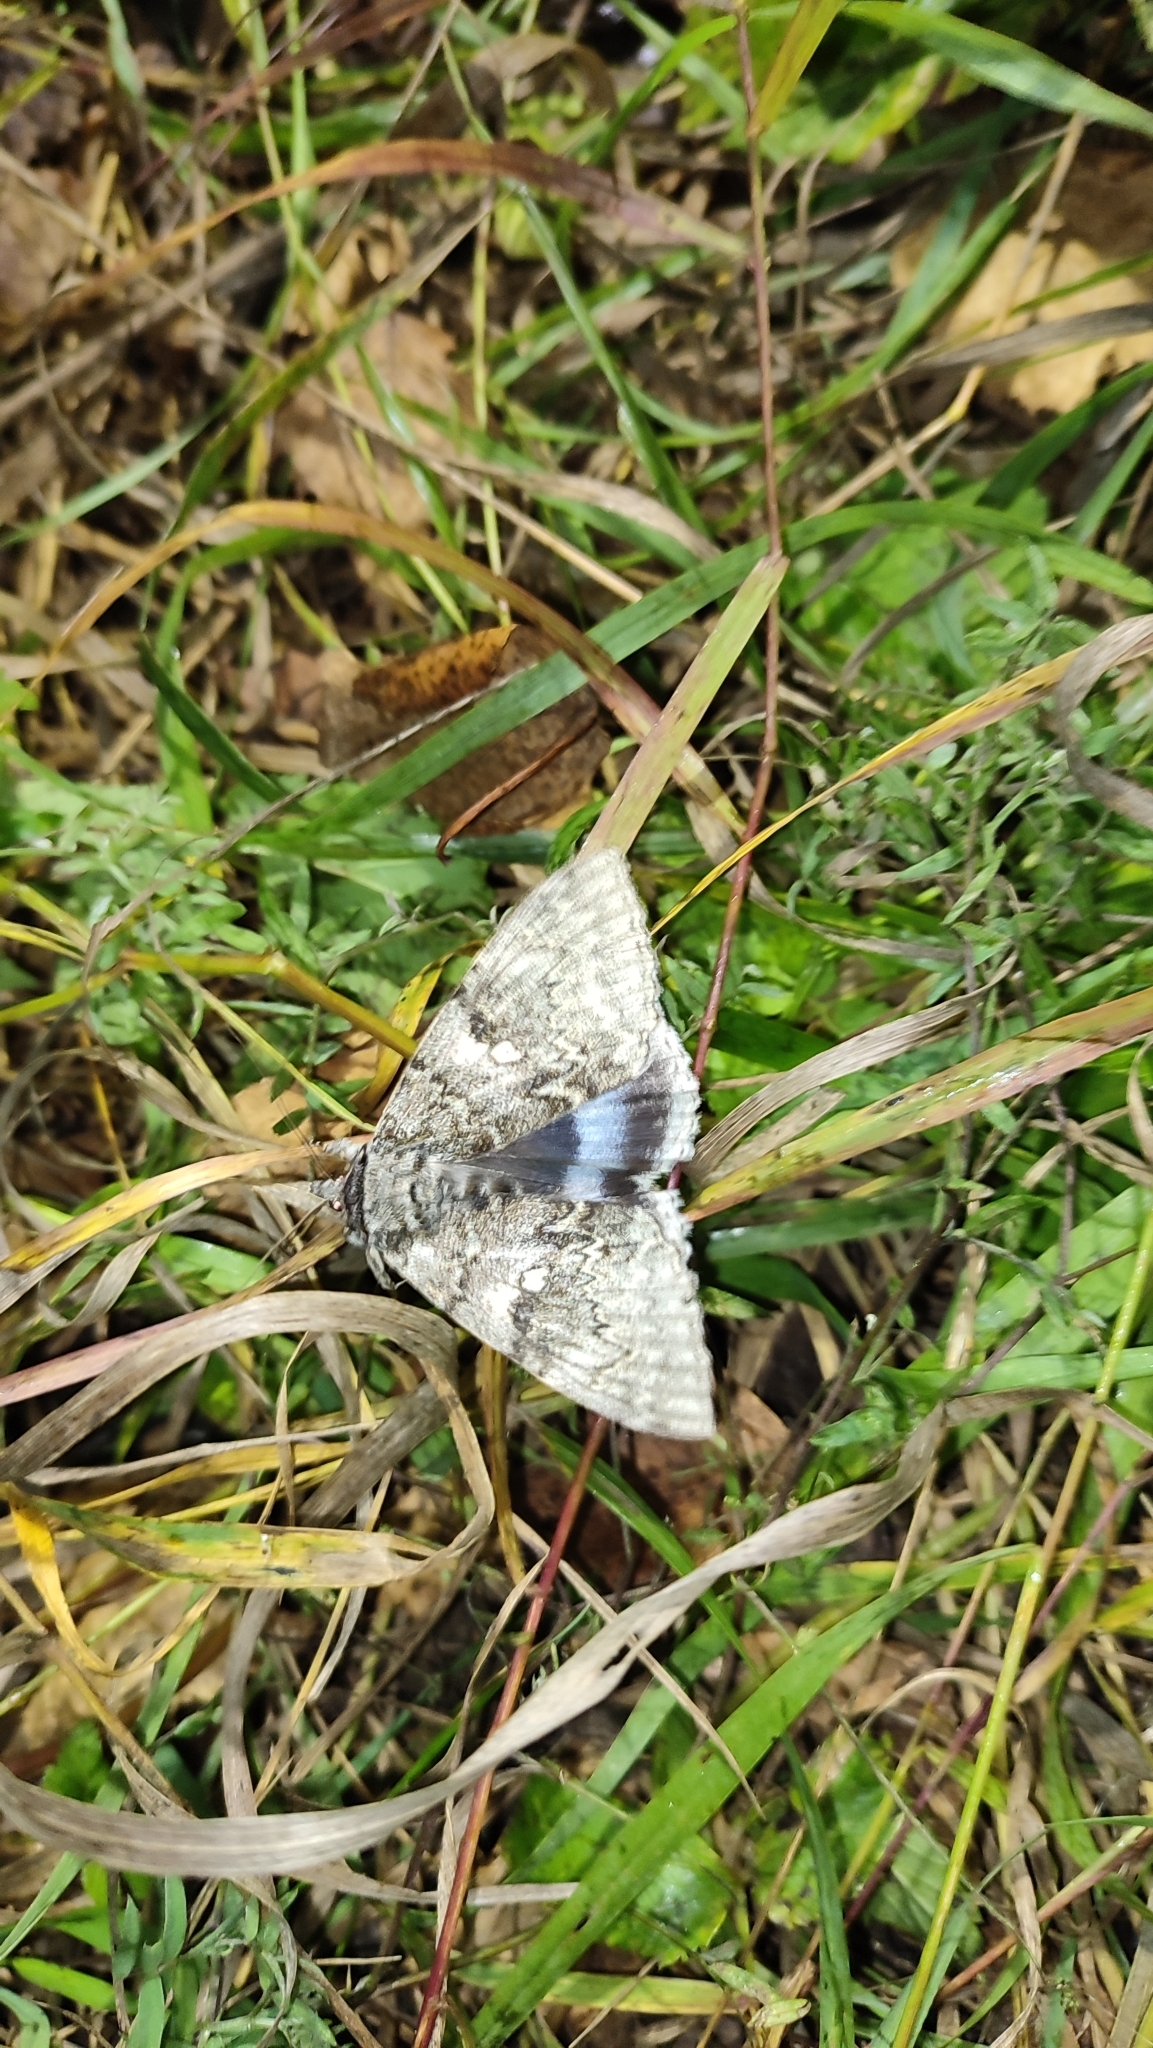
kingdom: Animalia
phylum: Arthropoda
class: Insecta
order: Lepidoptera
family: Erebidae
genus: Catocala
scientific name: Catocala fraxini
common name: Clifden nonpareil
